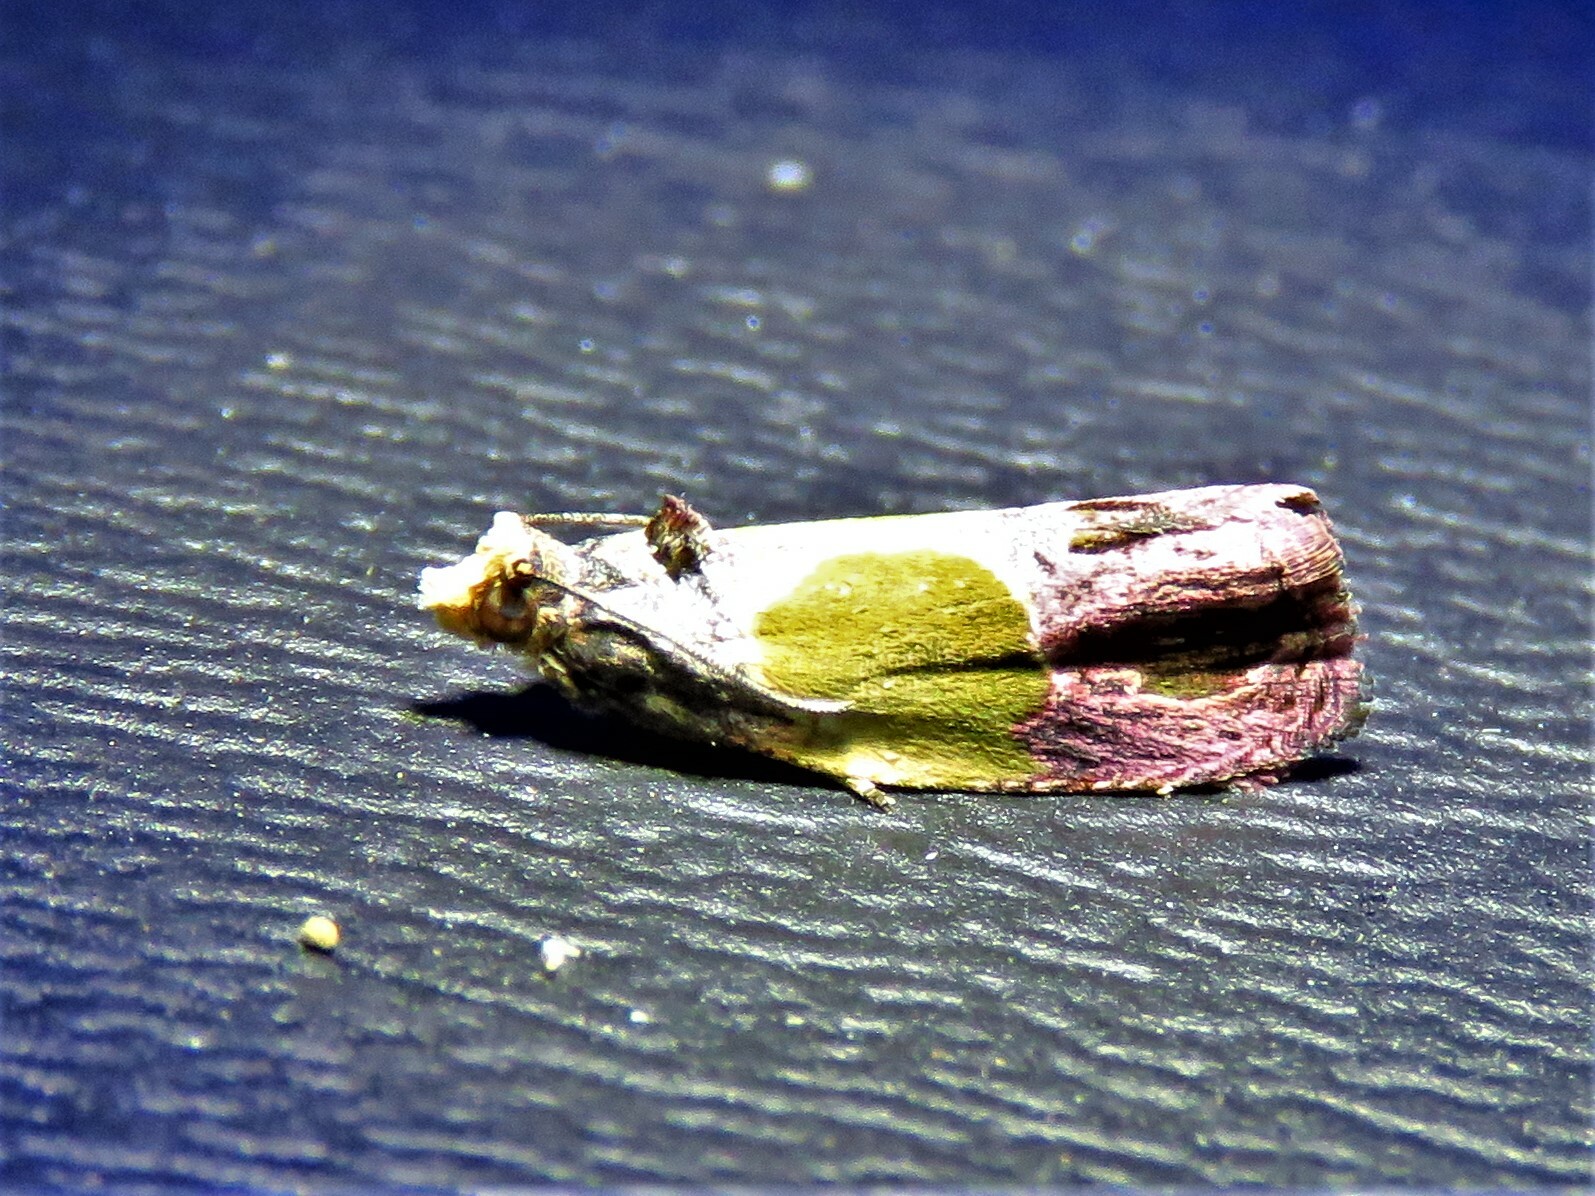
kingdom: Animalia
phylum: Arthropoda
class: Insecta
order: Lepidoptera
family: Tortricidae
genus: Eumarozia
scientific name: Eumarozia malachitana
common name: Sculptured moth
